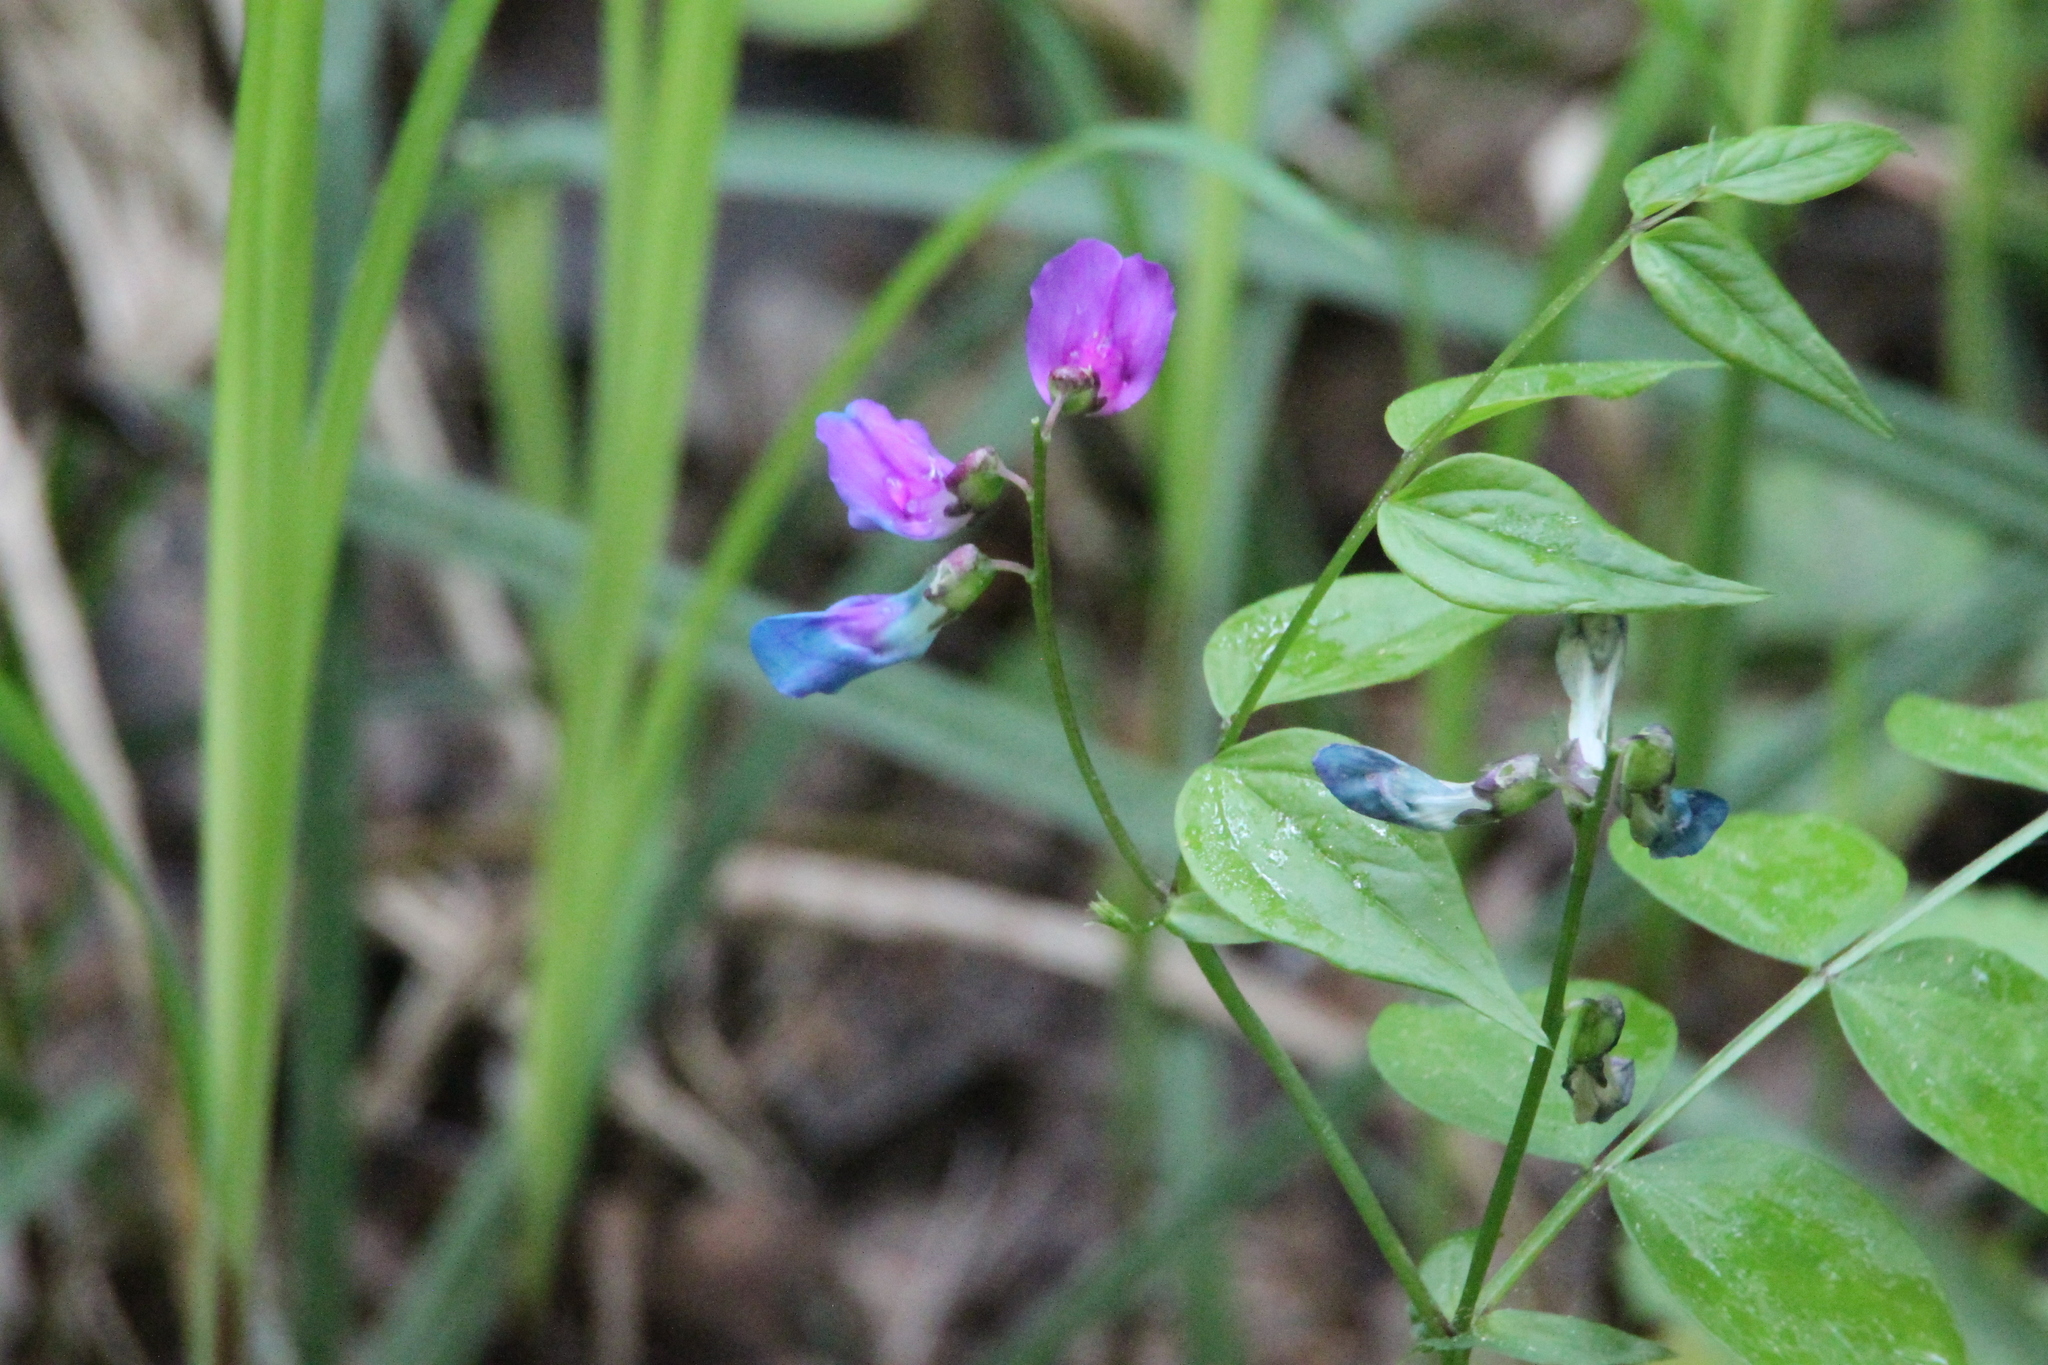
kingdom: Plantae
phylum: Tracheophyta
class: Magnoliopsida
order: Fabales
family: Fabaceae
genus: Lathyrus
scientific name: Lathyrus vernus
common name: Spring pea
